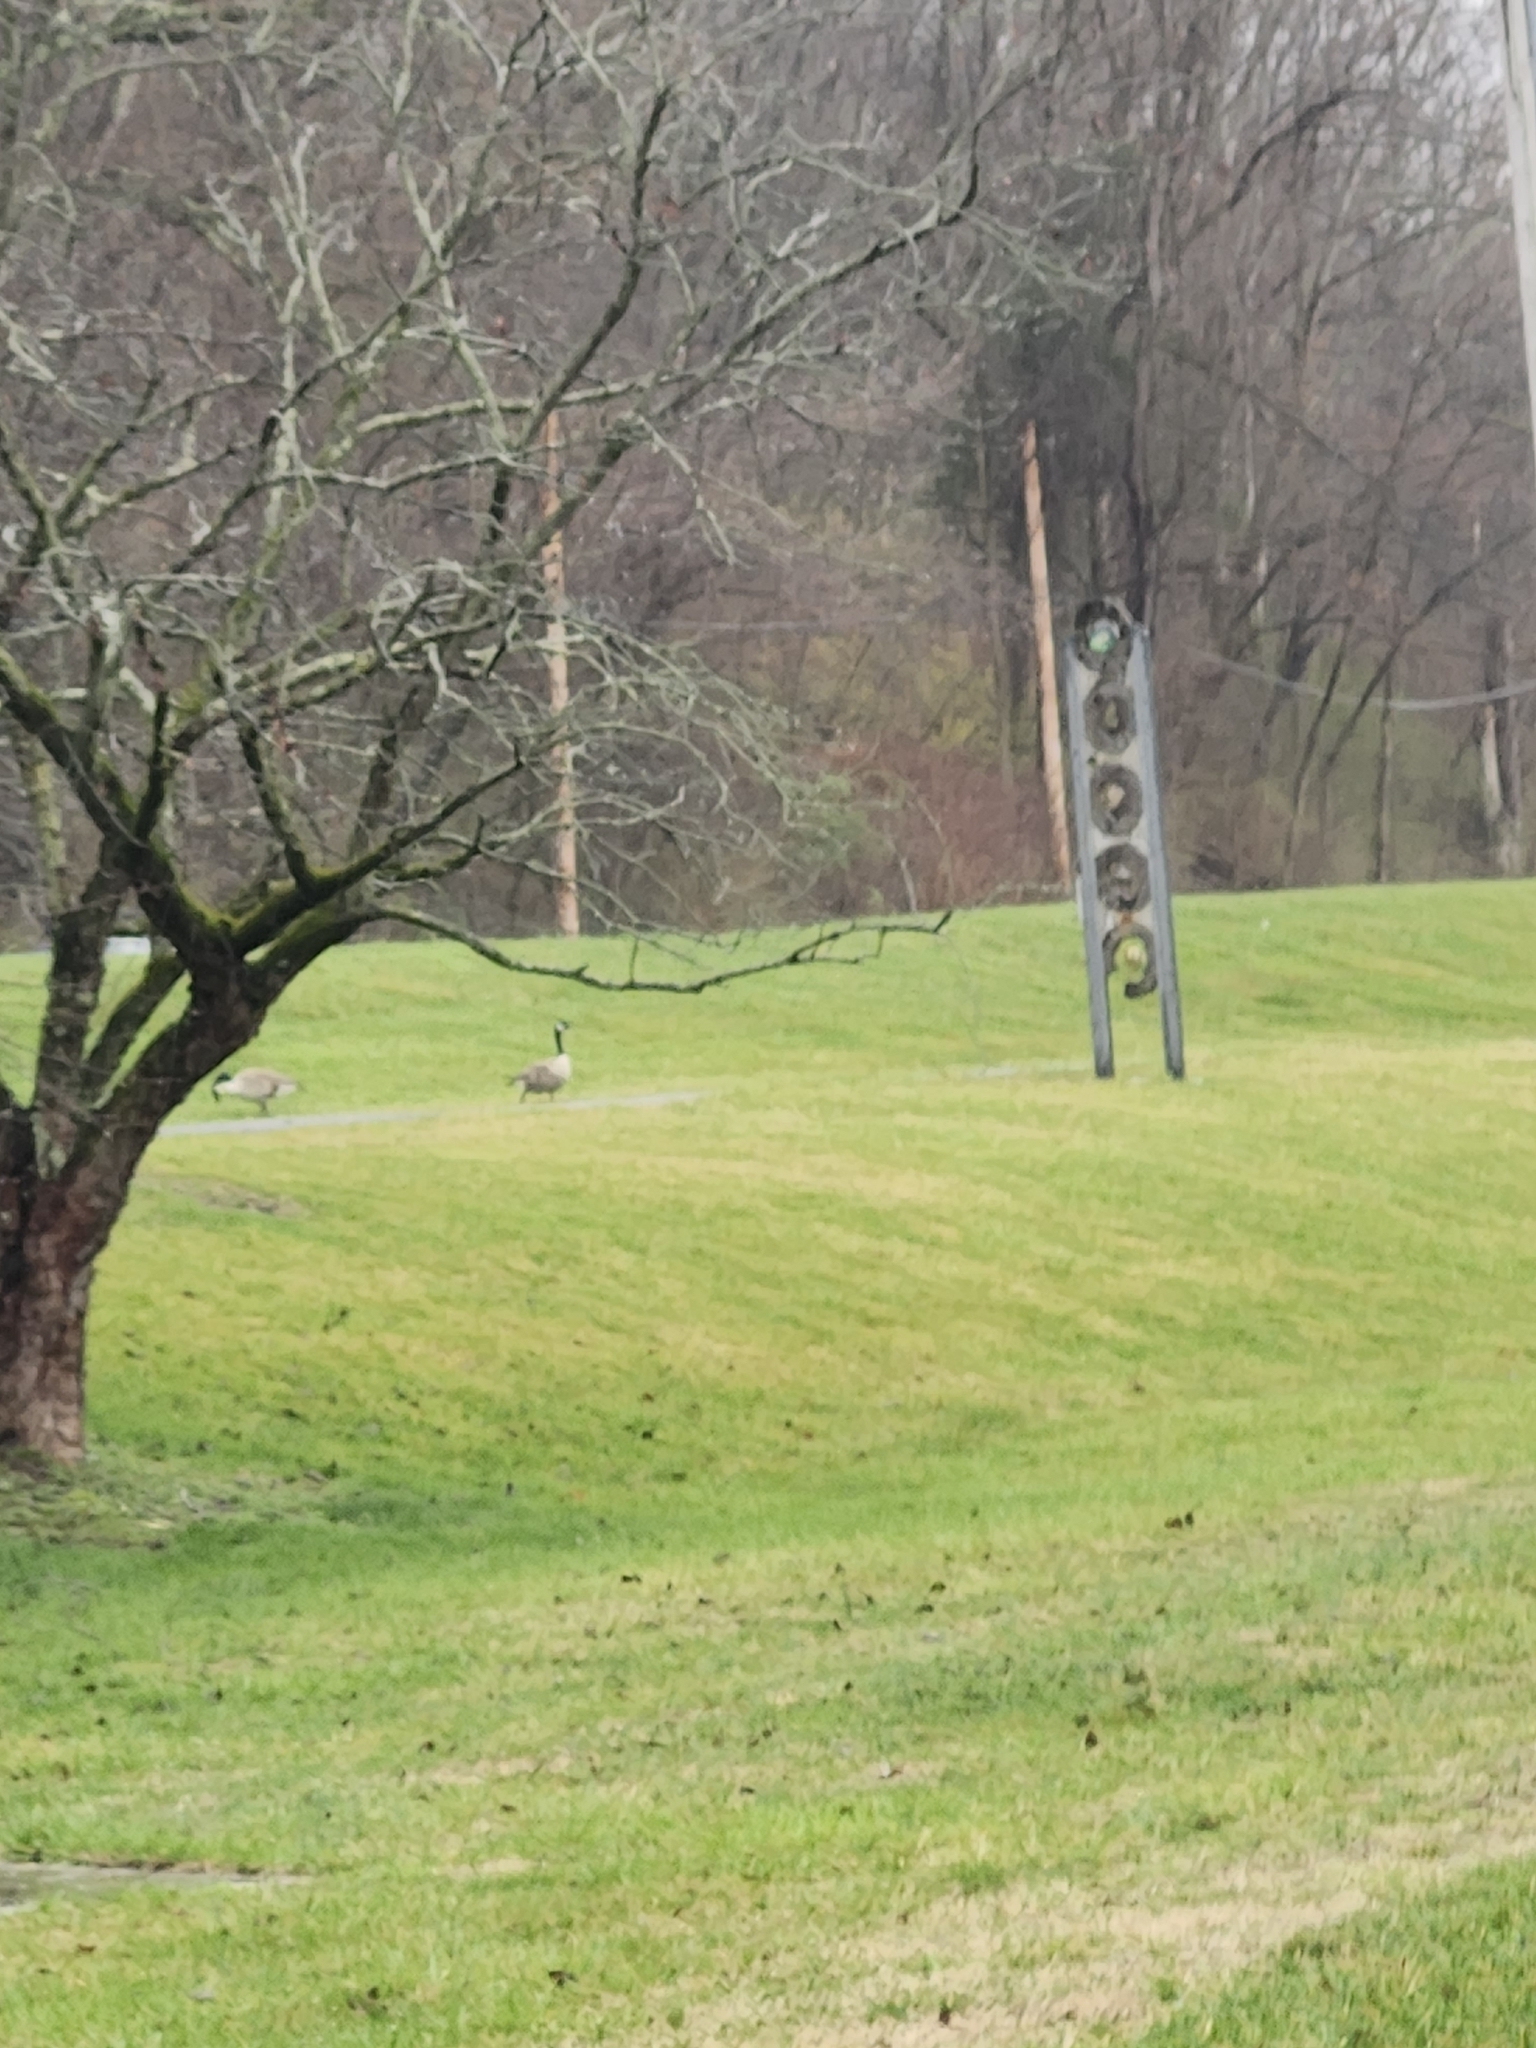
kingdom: Animalia
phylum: Chordata
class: Aves
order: Anseriformes
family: Anatidae
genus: Branta
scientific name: Branta canadensis
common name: Canada goose
